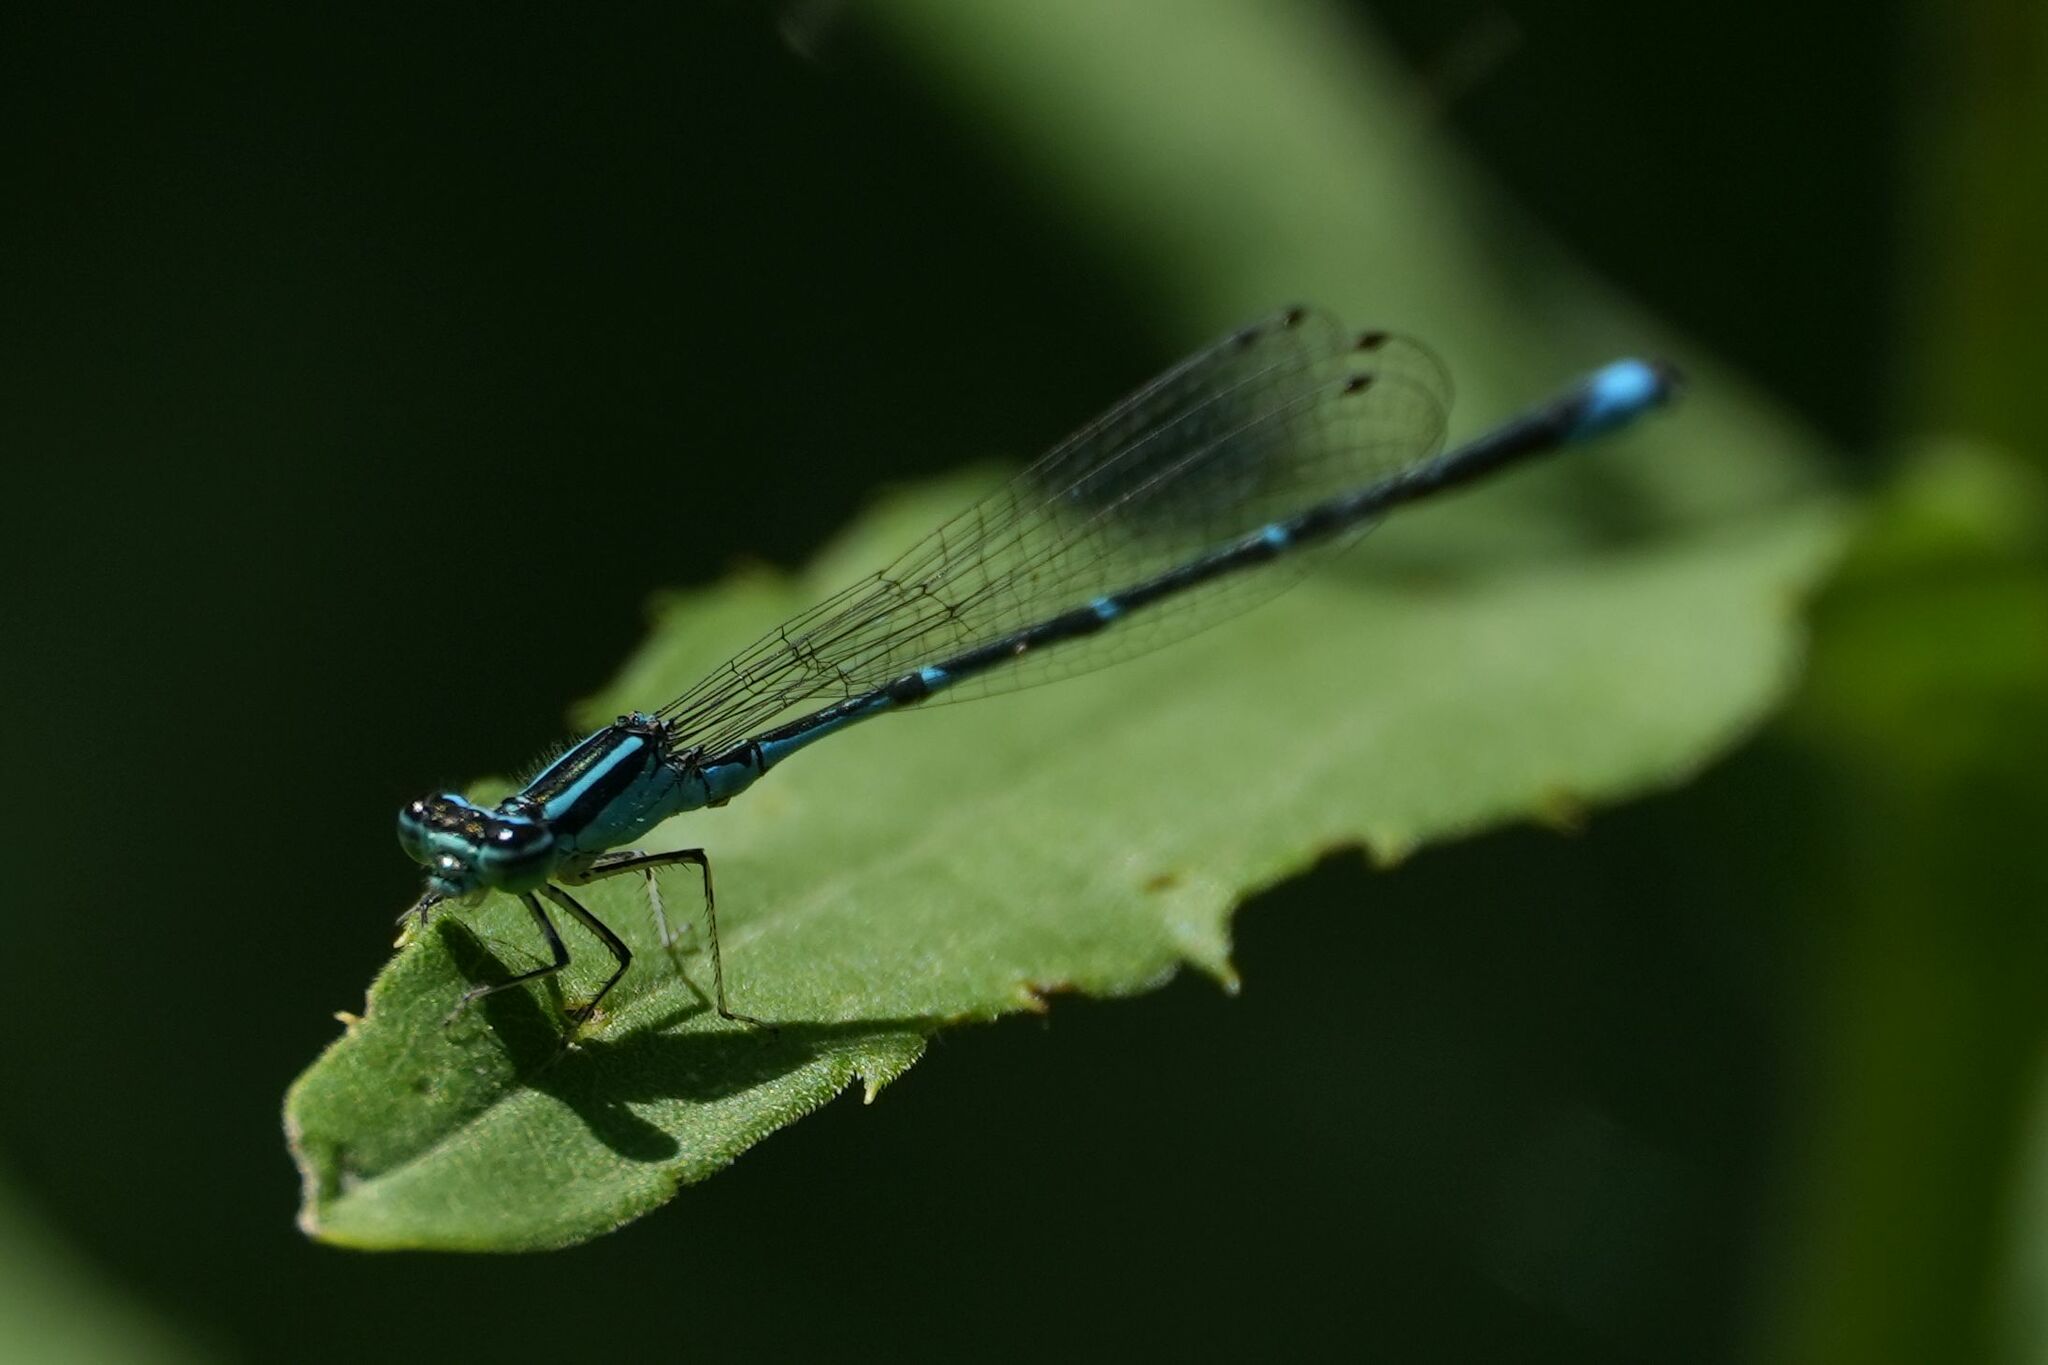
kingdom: Animalia
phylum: Arthropoda
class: Insecta
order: Odonata
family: Coenagrionidae
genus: Enallagma
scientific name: Enallagma exsulans
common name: Stream bluet
